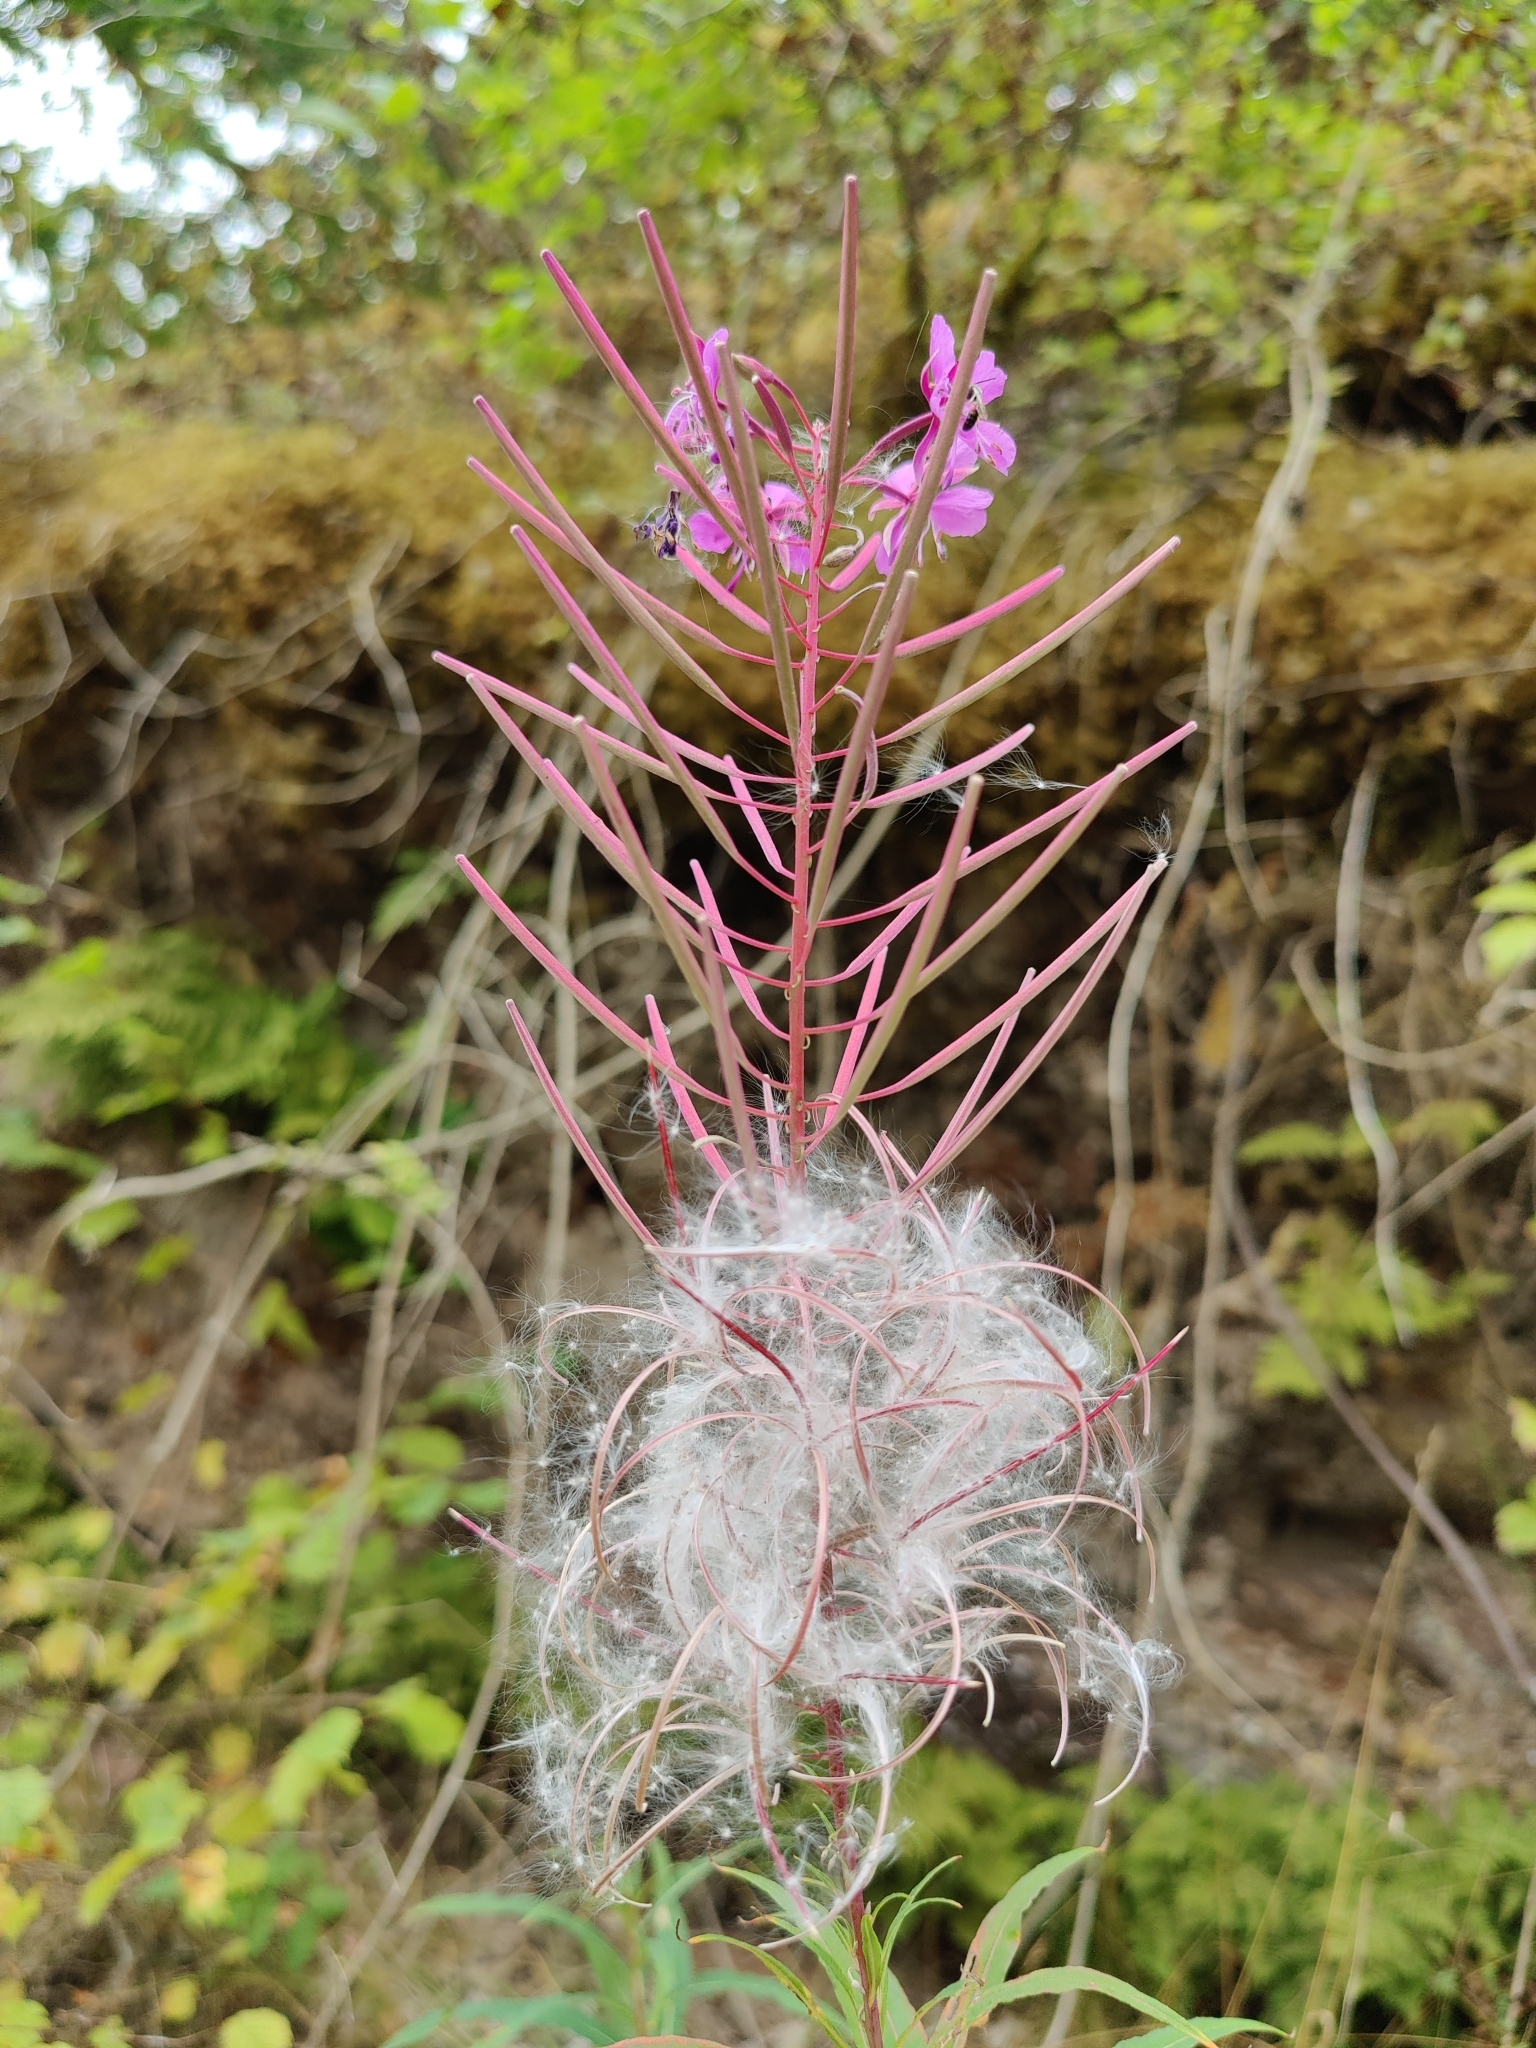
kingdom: Plantae
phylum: Tracheophyta
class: Magnoliopsida
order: Myrtales
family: Onagraceae
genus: Chamaenerion
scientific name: Chamaenerion angustifolium
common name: Fireweed
